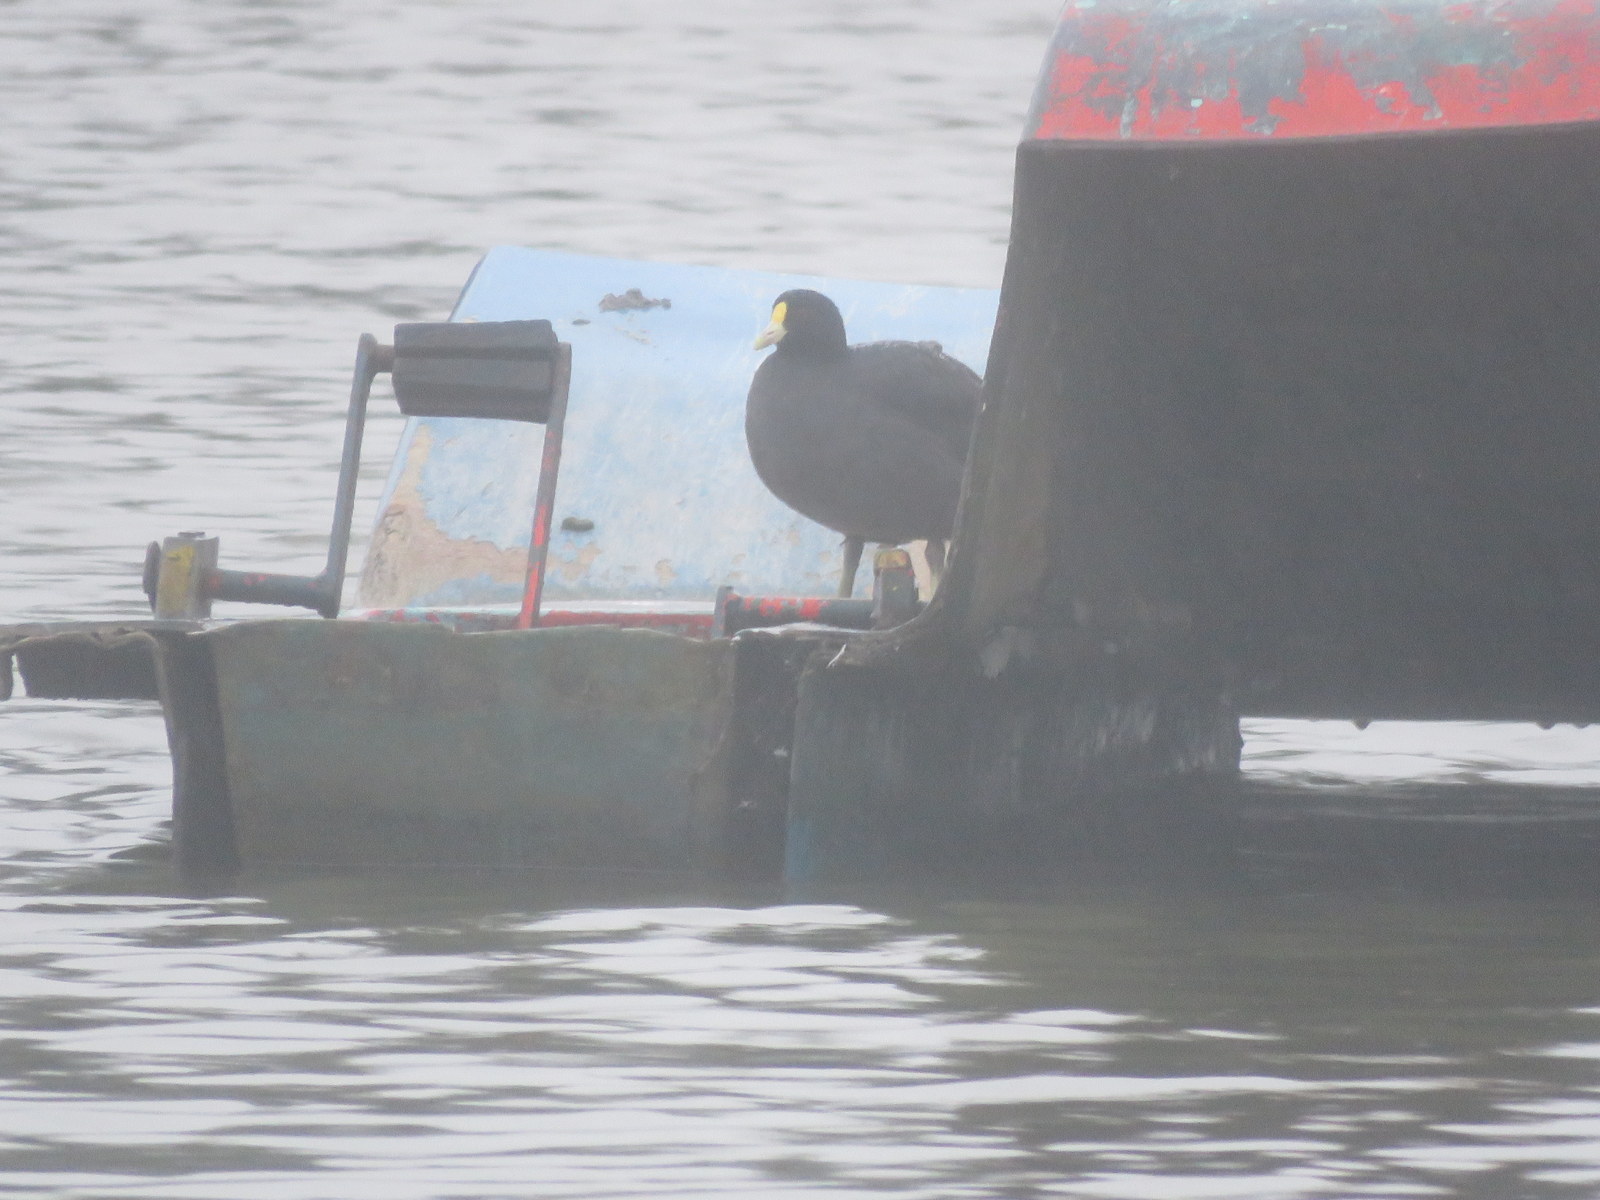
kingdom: Animalia
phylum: Chordata
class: Aves
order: Gruiformes
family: Rallidae
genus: Fulica
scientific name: Fulica leucoptera
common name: White-winged coot
